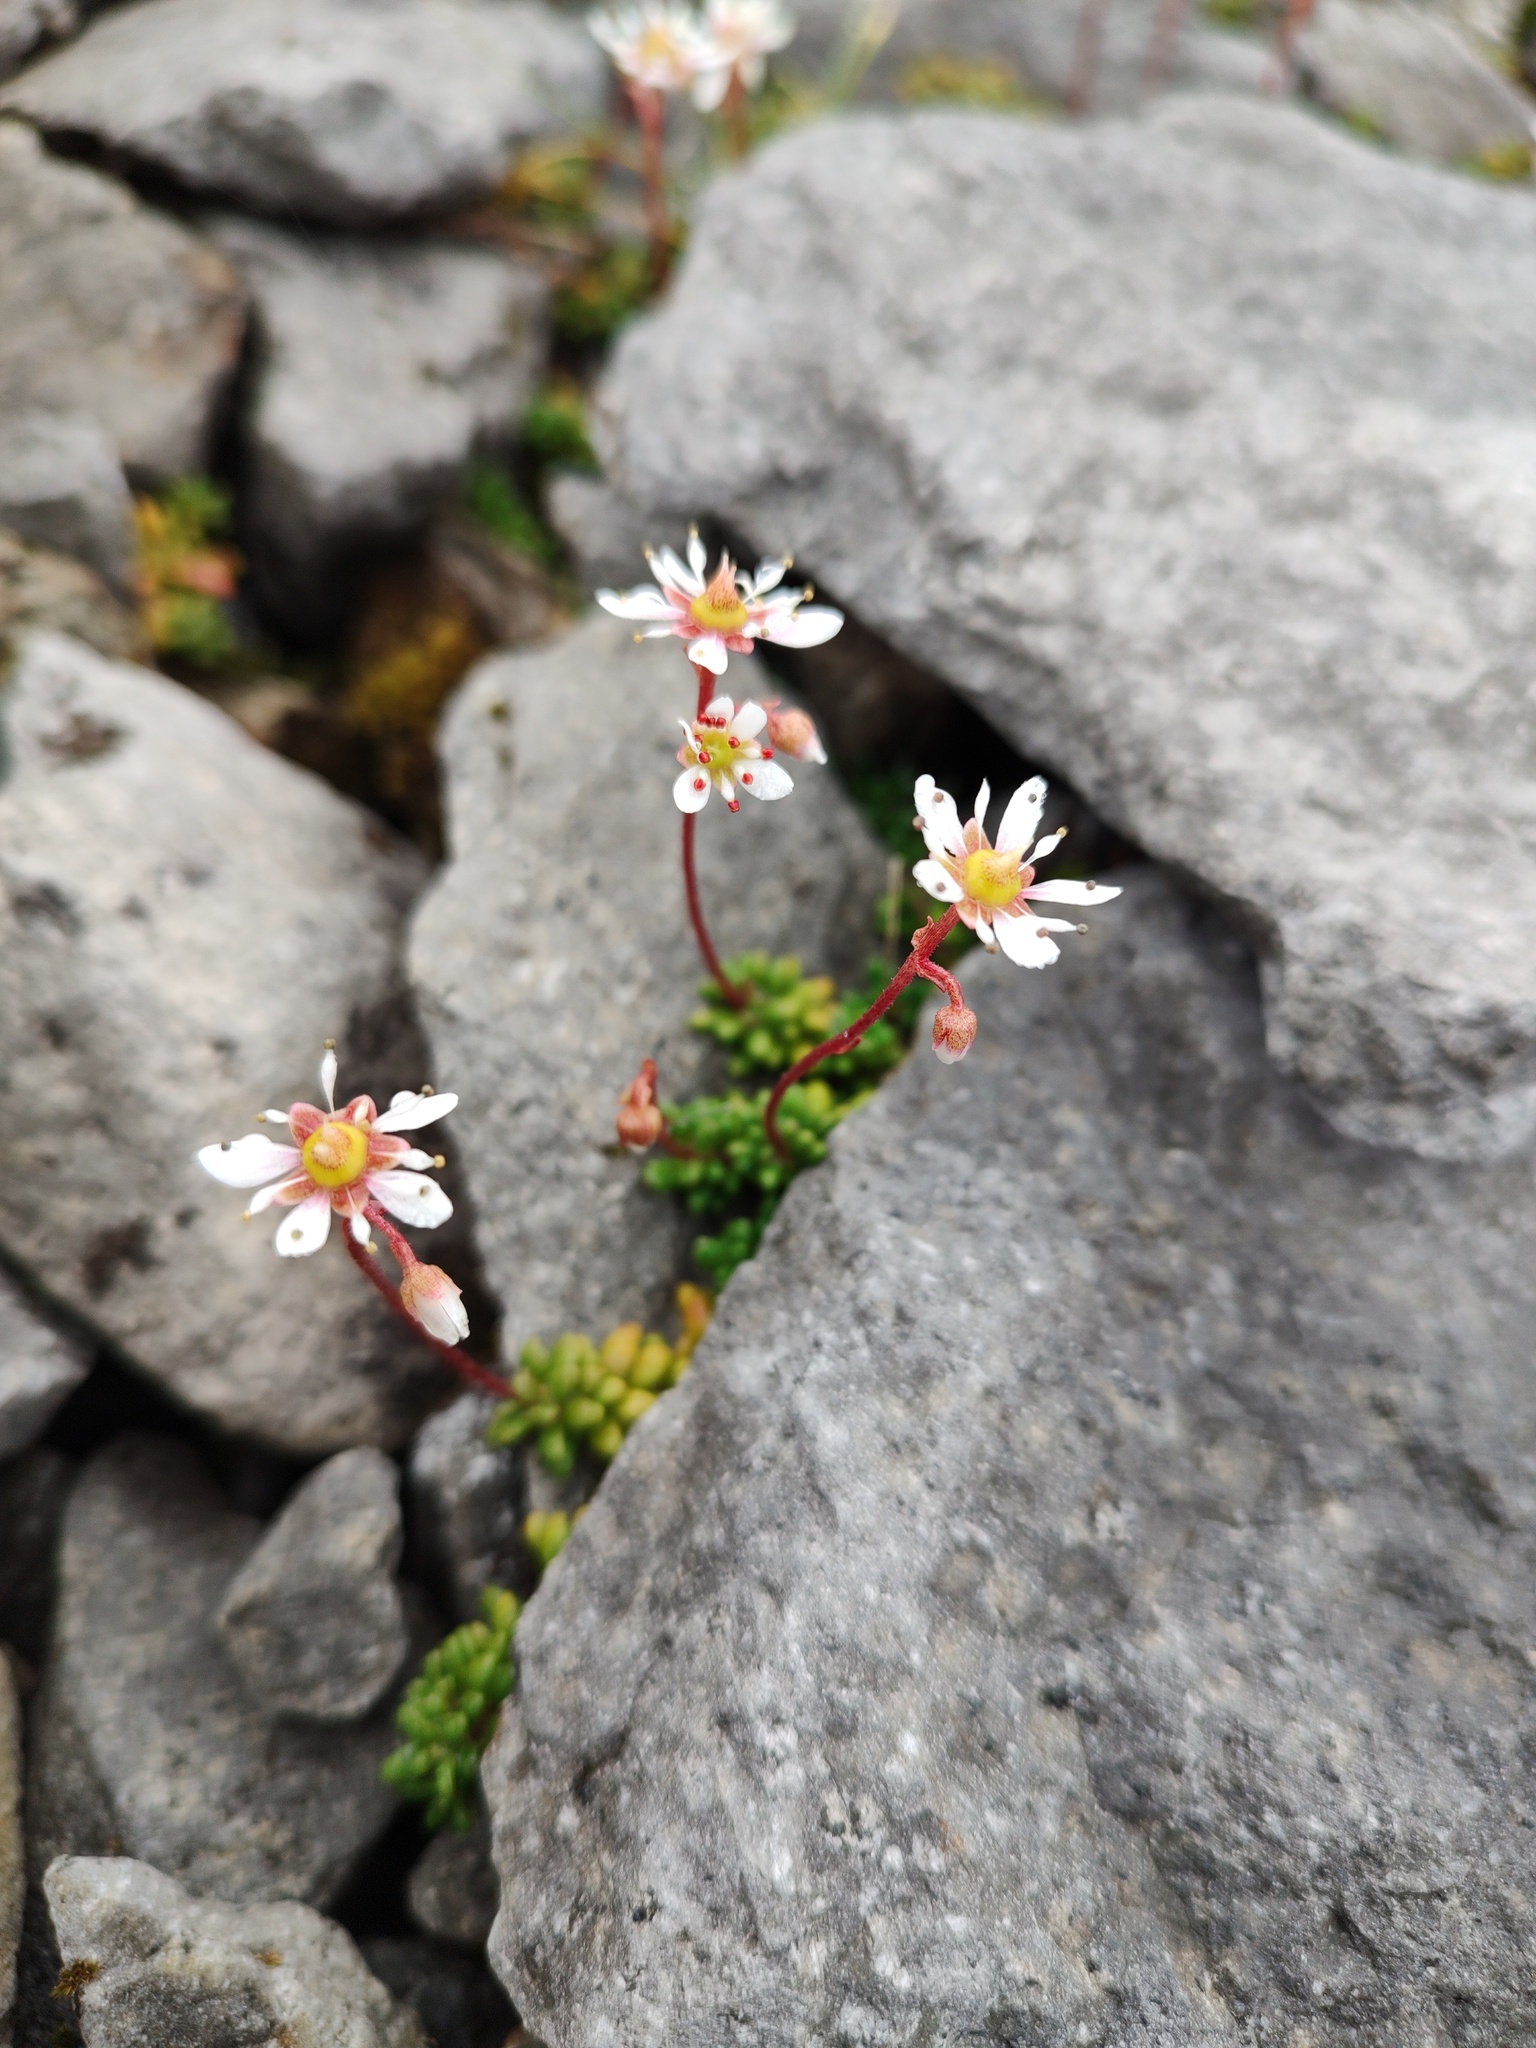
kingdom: Plantae
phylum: Tracheophyta
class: Magnoliopsida
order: Saxifragales
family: Saxifragaceae
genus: Micranthes
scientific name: Micranthes tolmiei
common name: Tolmie's saxifrage
